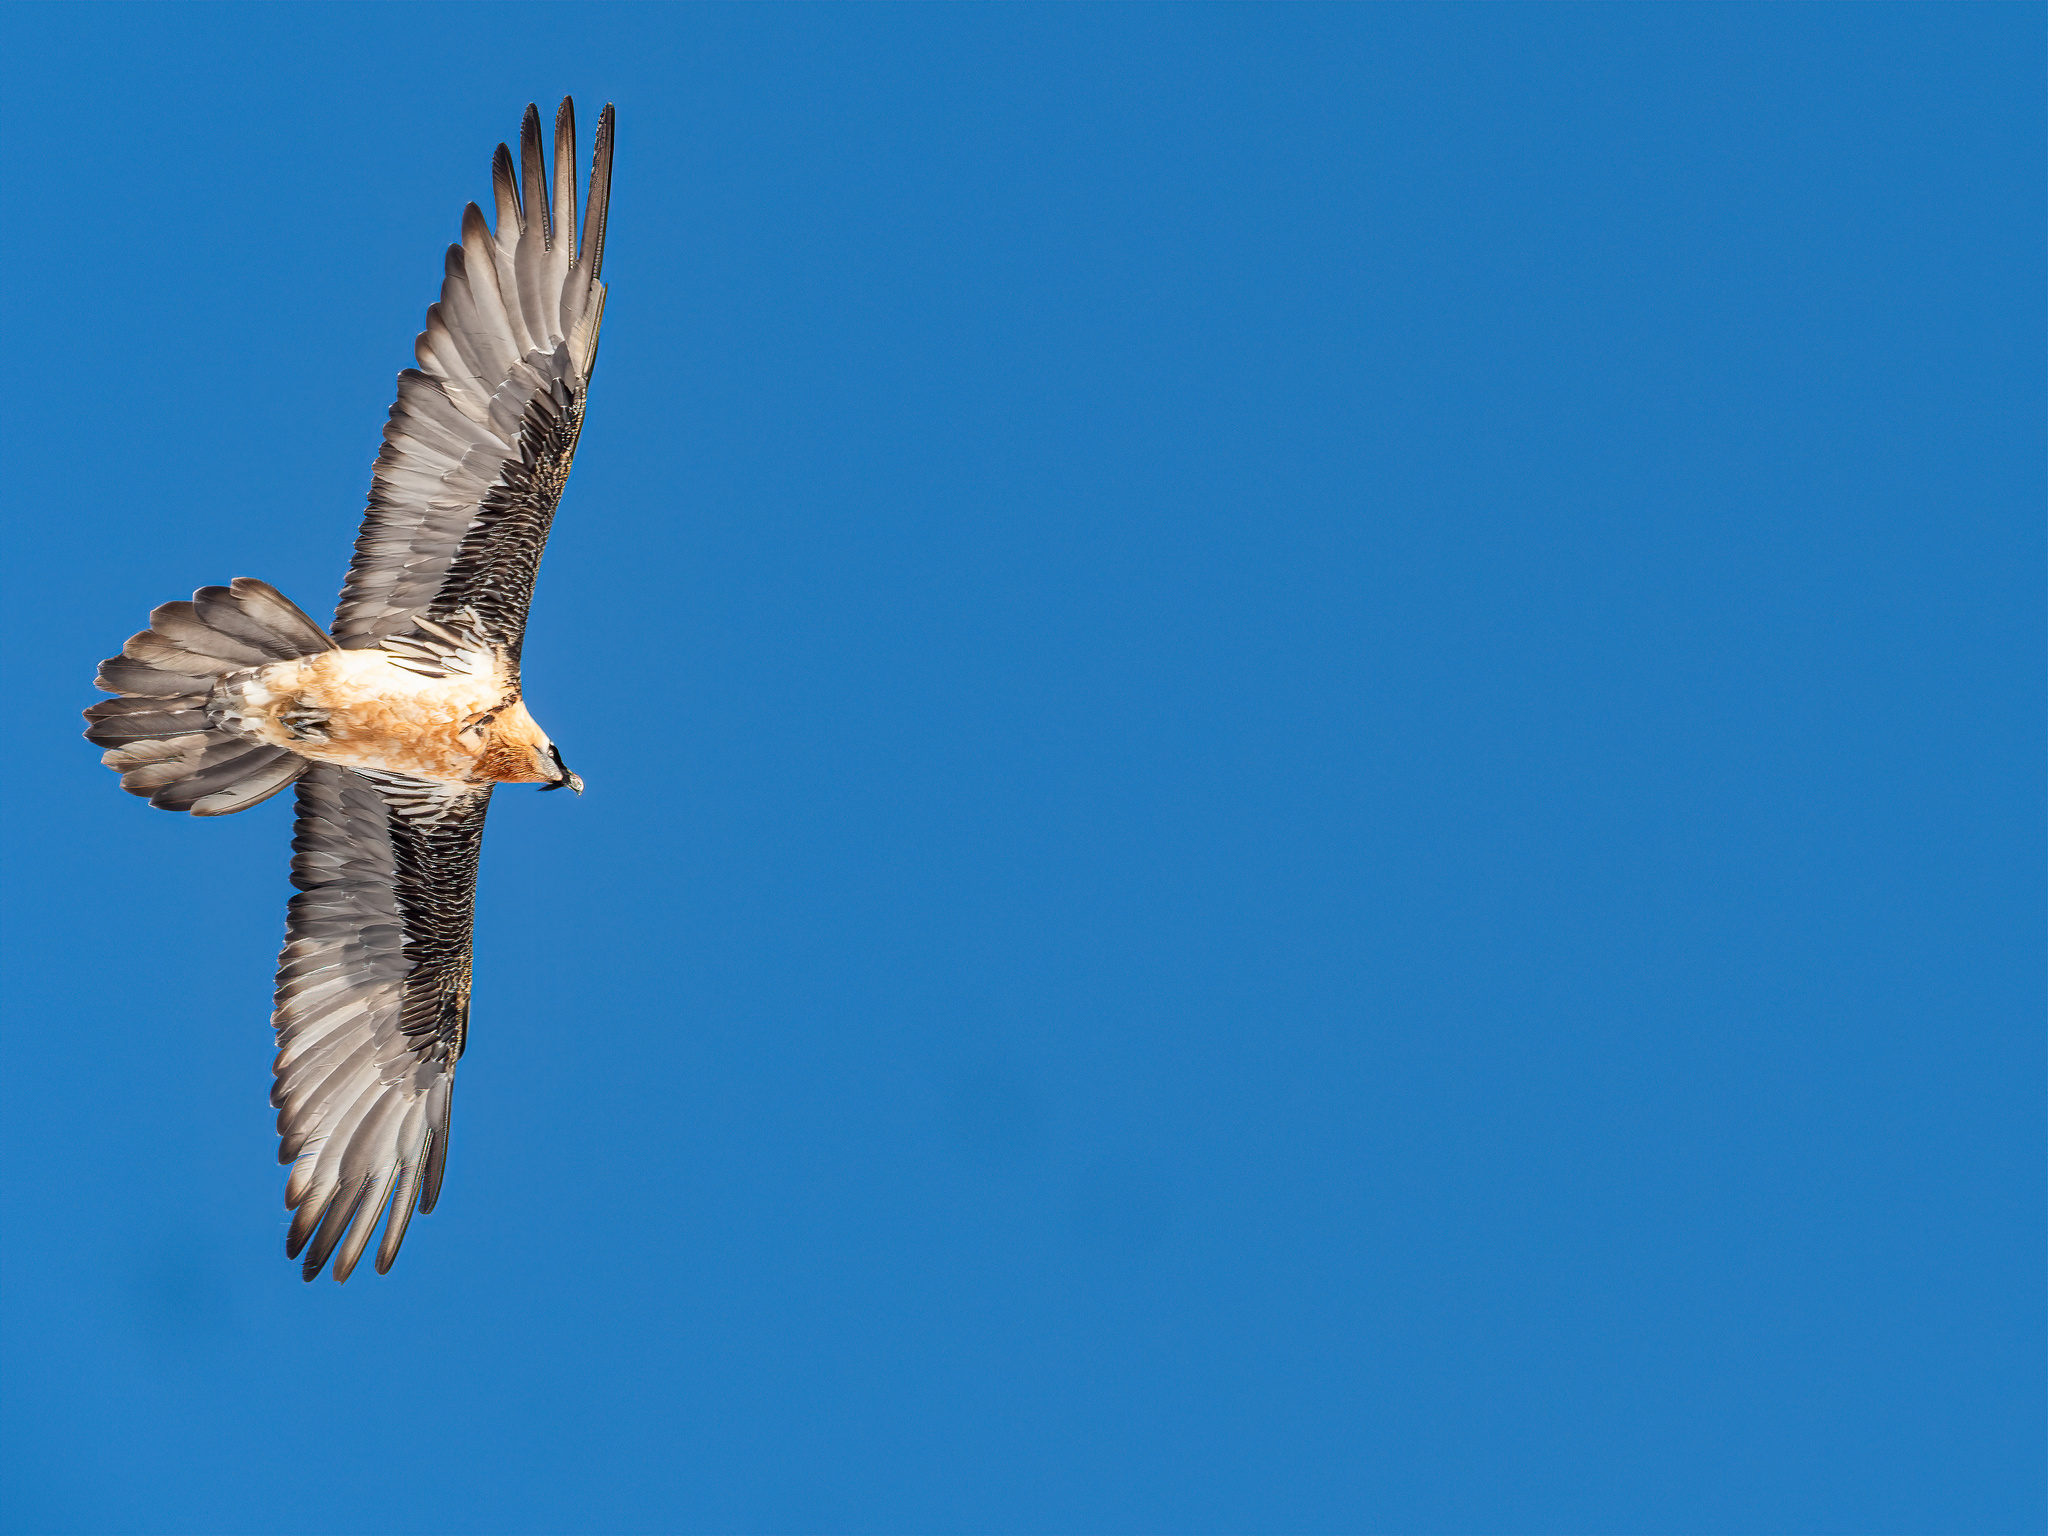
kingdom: Animalia
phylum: Chordata
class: Aves
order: Accipitriformes
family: Accipitridae
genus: Gypaetus
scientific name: Gypaetus barbatus
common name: Bearded vulture
